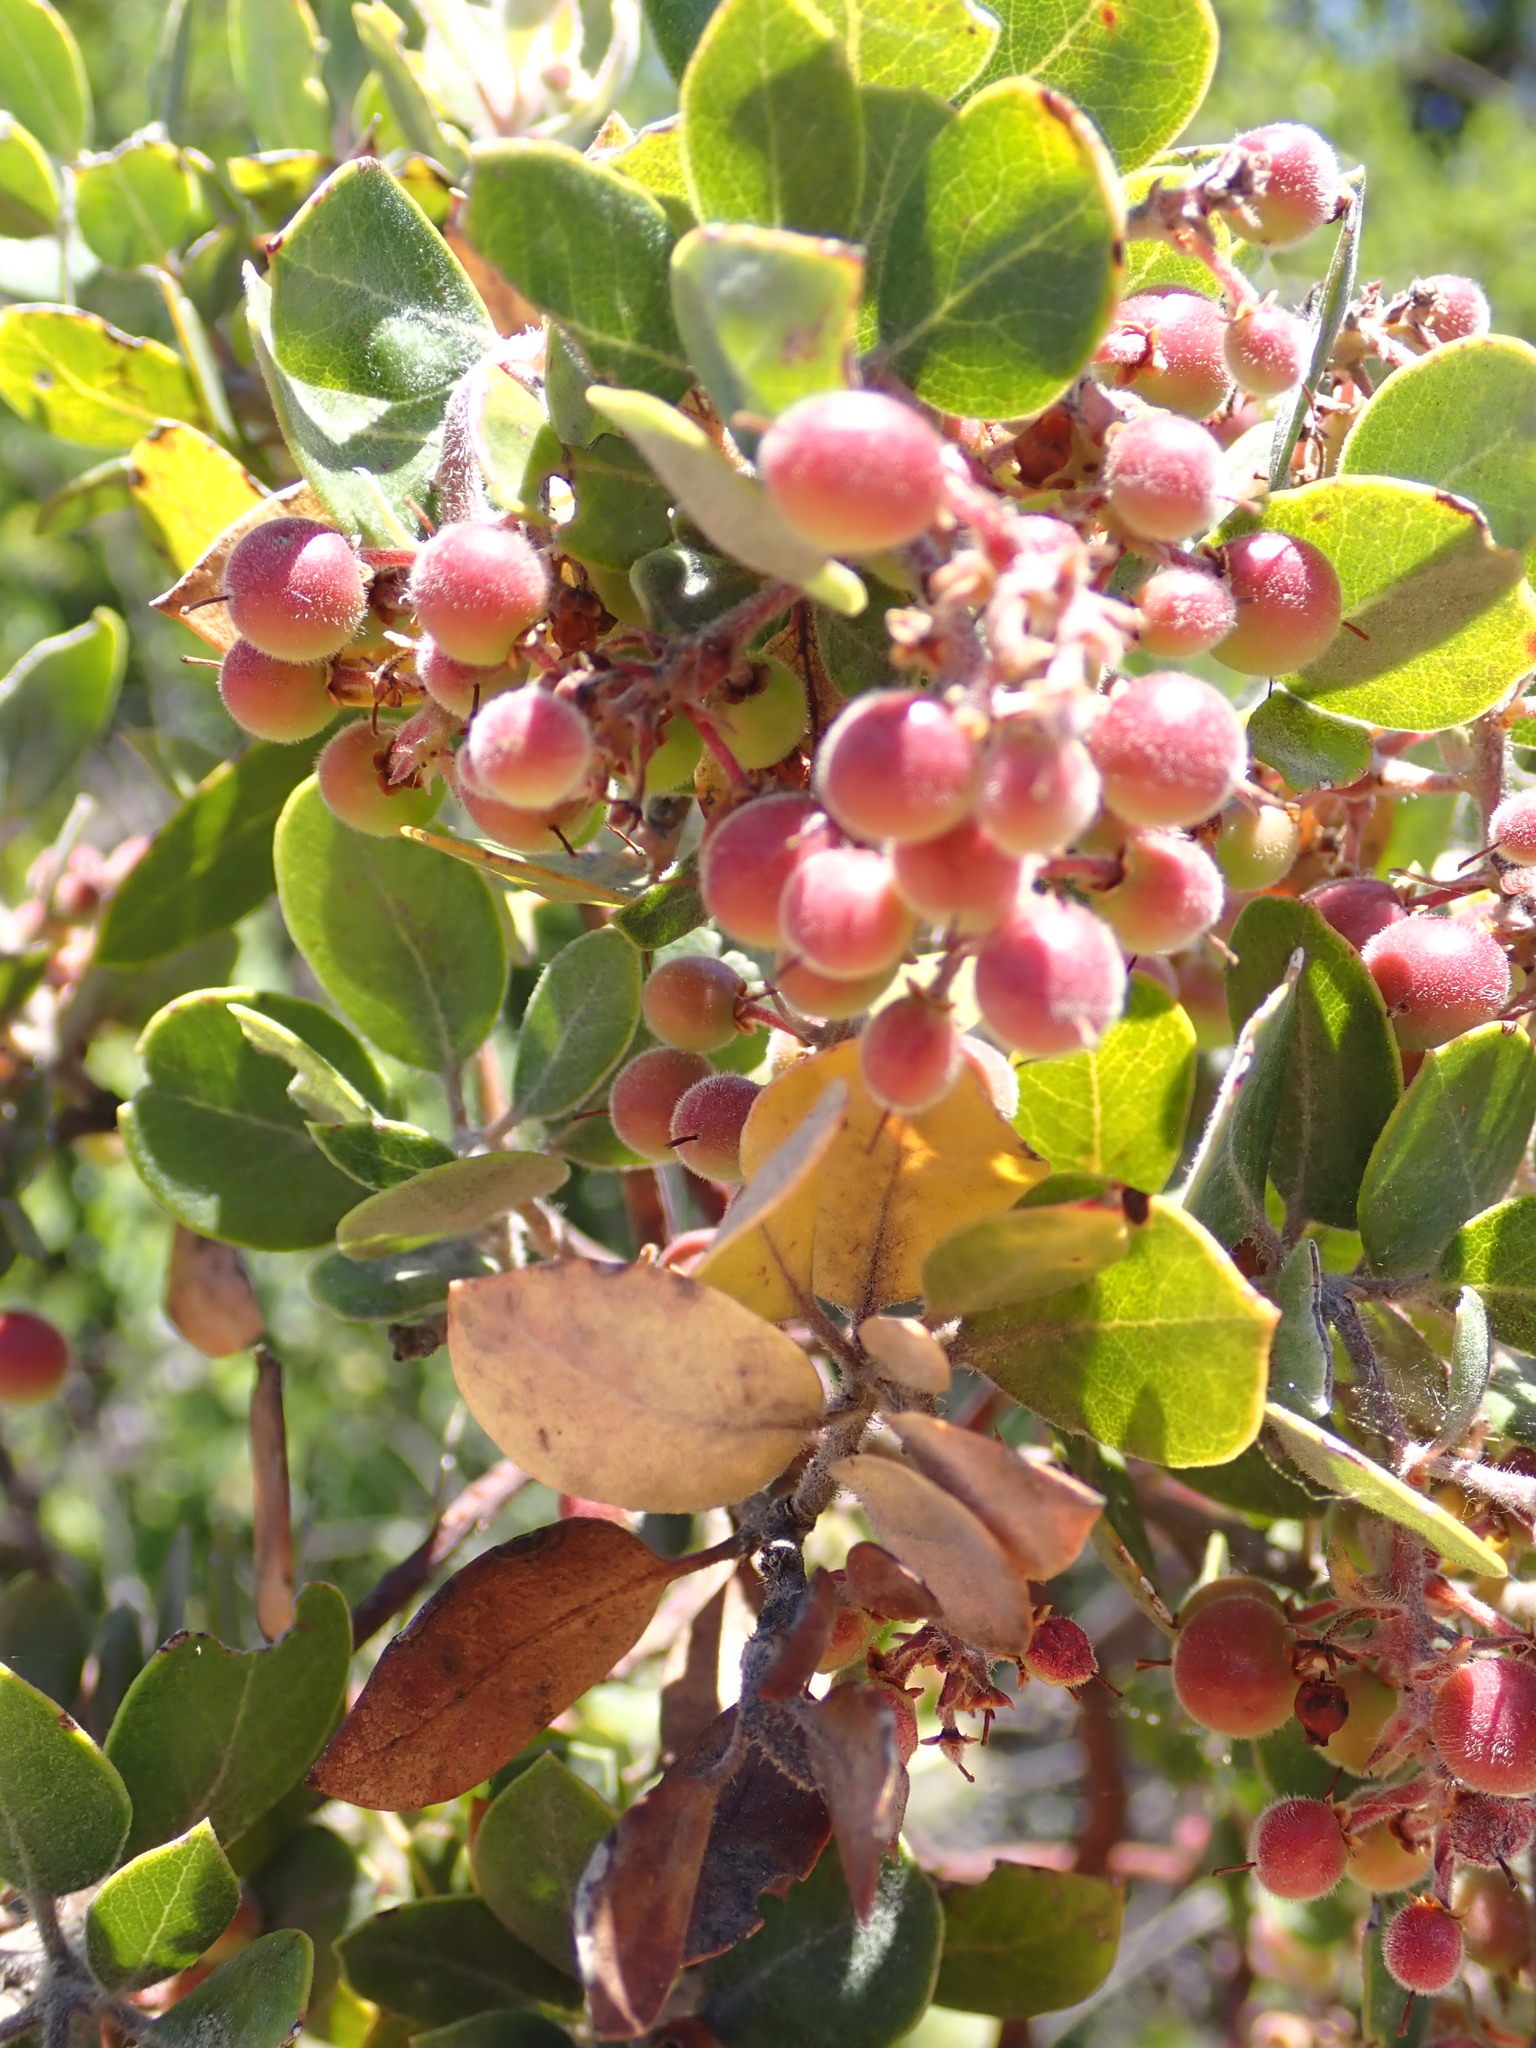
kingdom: Plantae
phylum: Tracheophyta
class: Magnoliopsida
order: Ericales
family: Ericaceae
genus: Arctostaphylos
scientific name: Arctostaphylos crustacea
